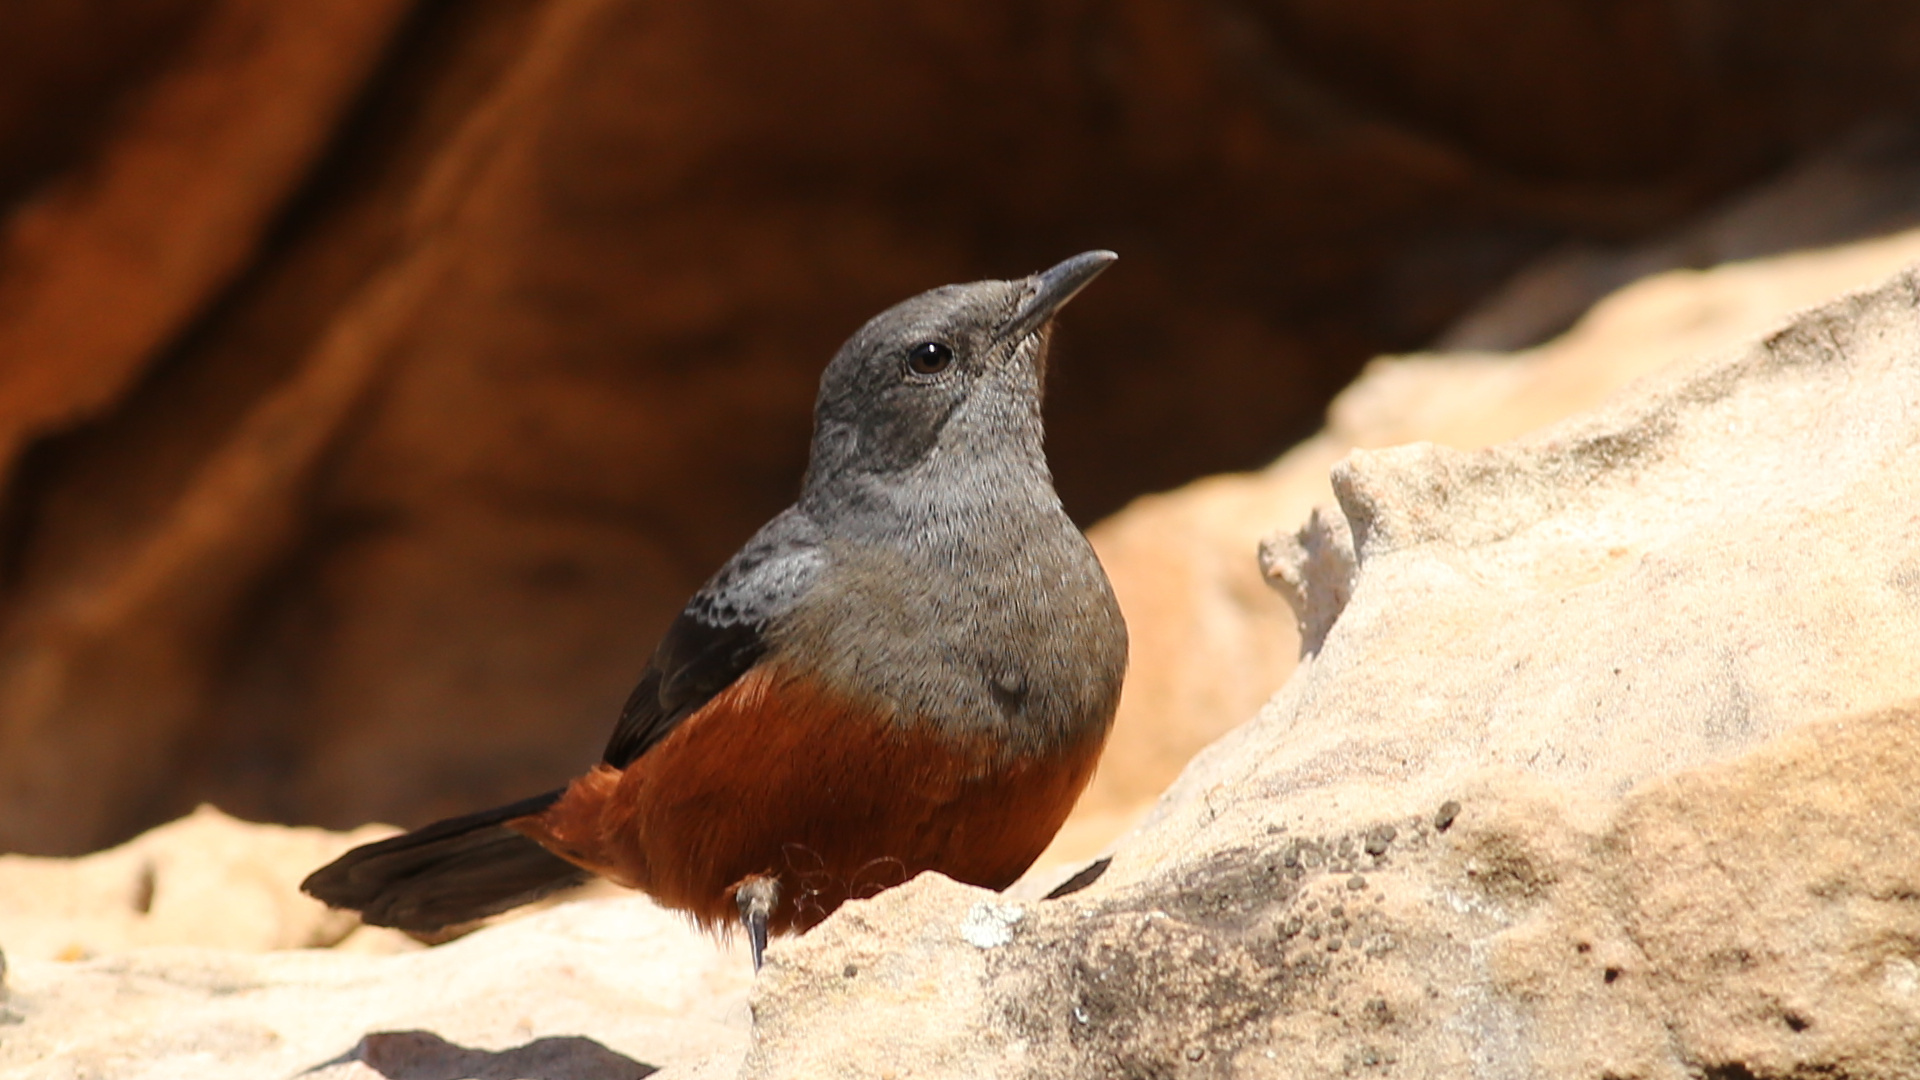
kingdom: Animalia
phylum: Chordata
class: Aves
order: Passeriformes
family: Muscicapidae
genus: Thamnolaea
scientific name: Thamnolaea cinnamomeiventris
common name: Mocking cliff chat
